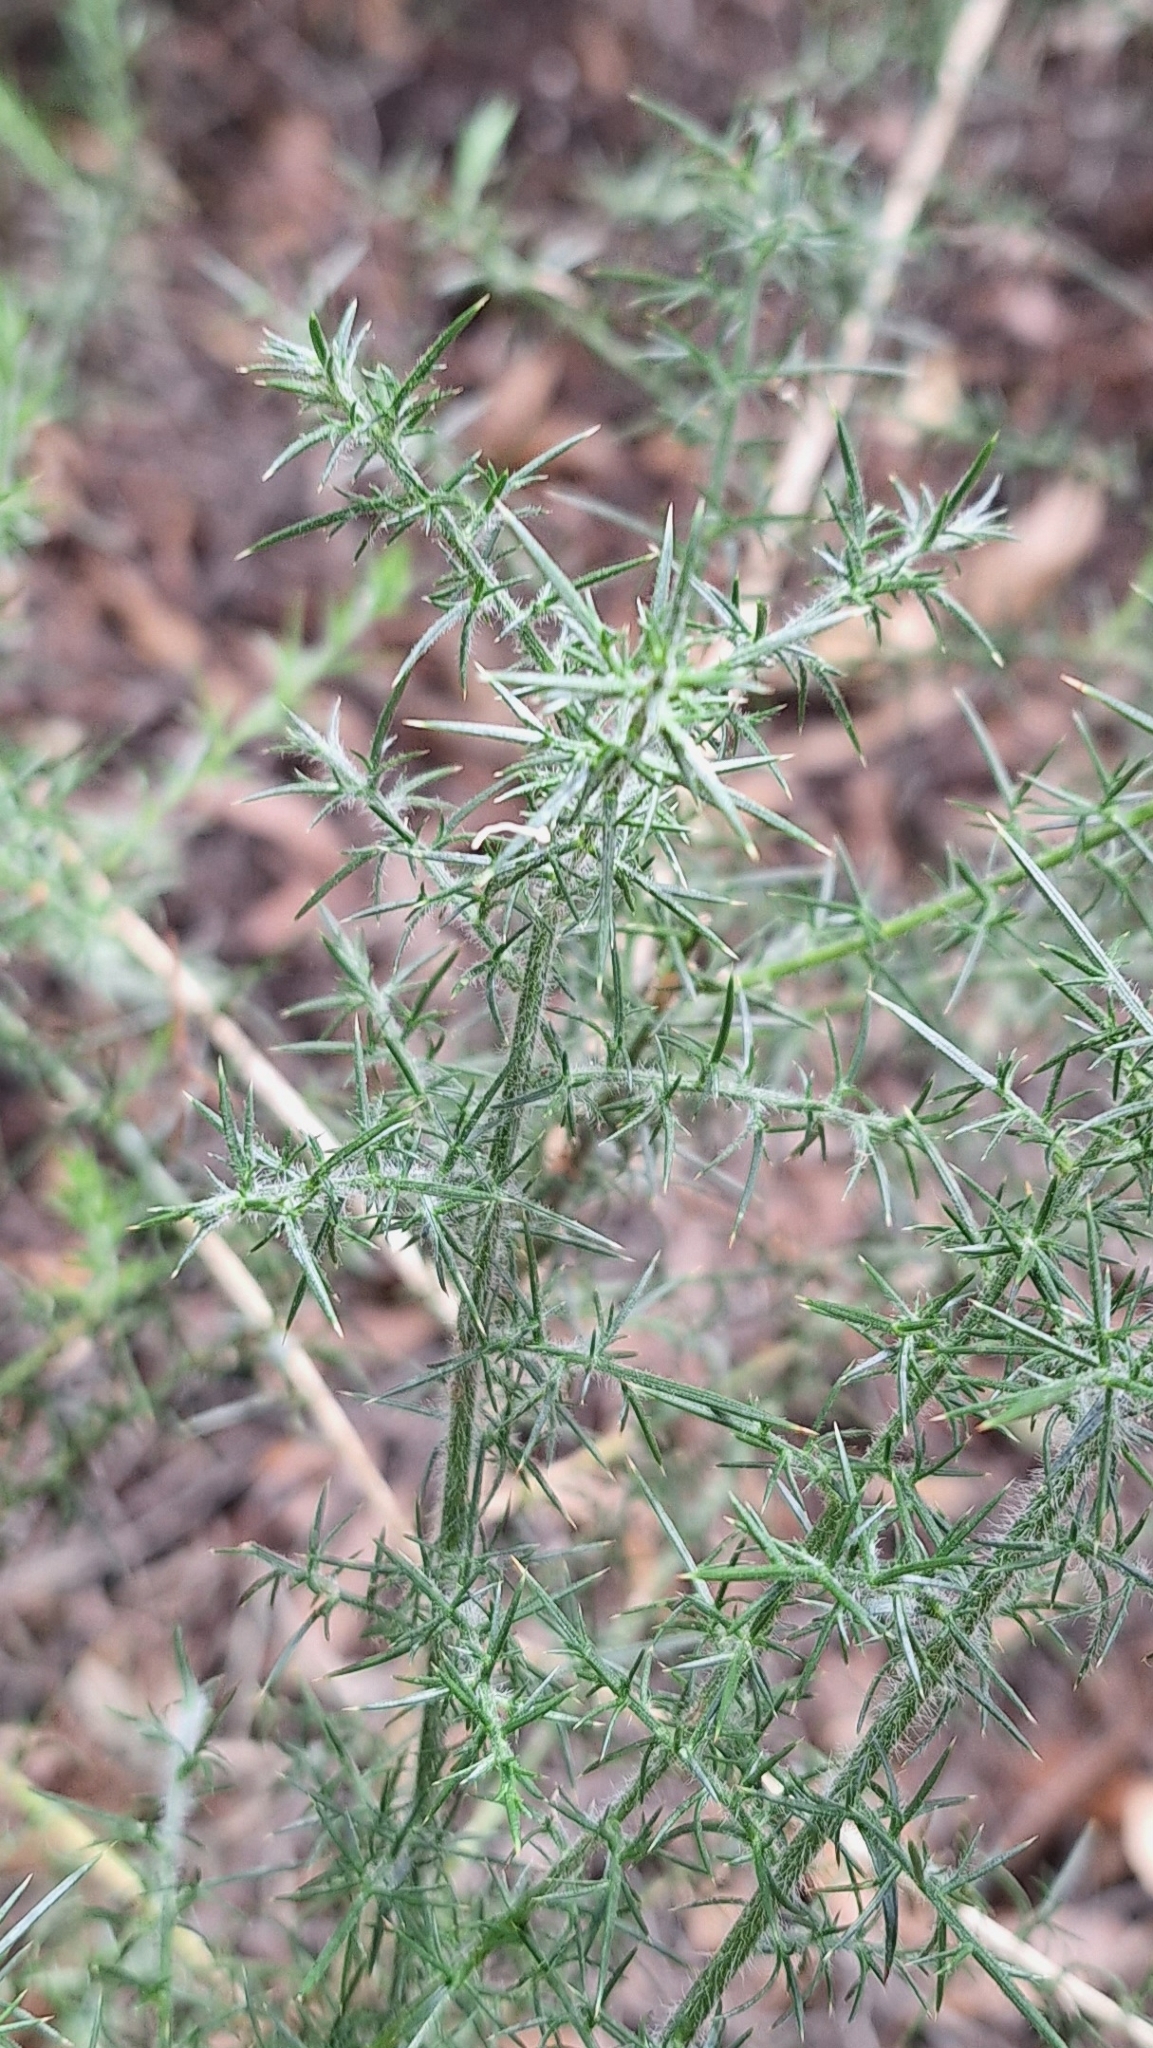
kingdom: Plantae
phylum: Tracheophyta
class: Magnoliopsida
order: Fabales
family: Fabaceae
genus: Ulex
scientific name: Ulex europaeus
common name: Common gorse
